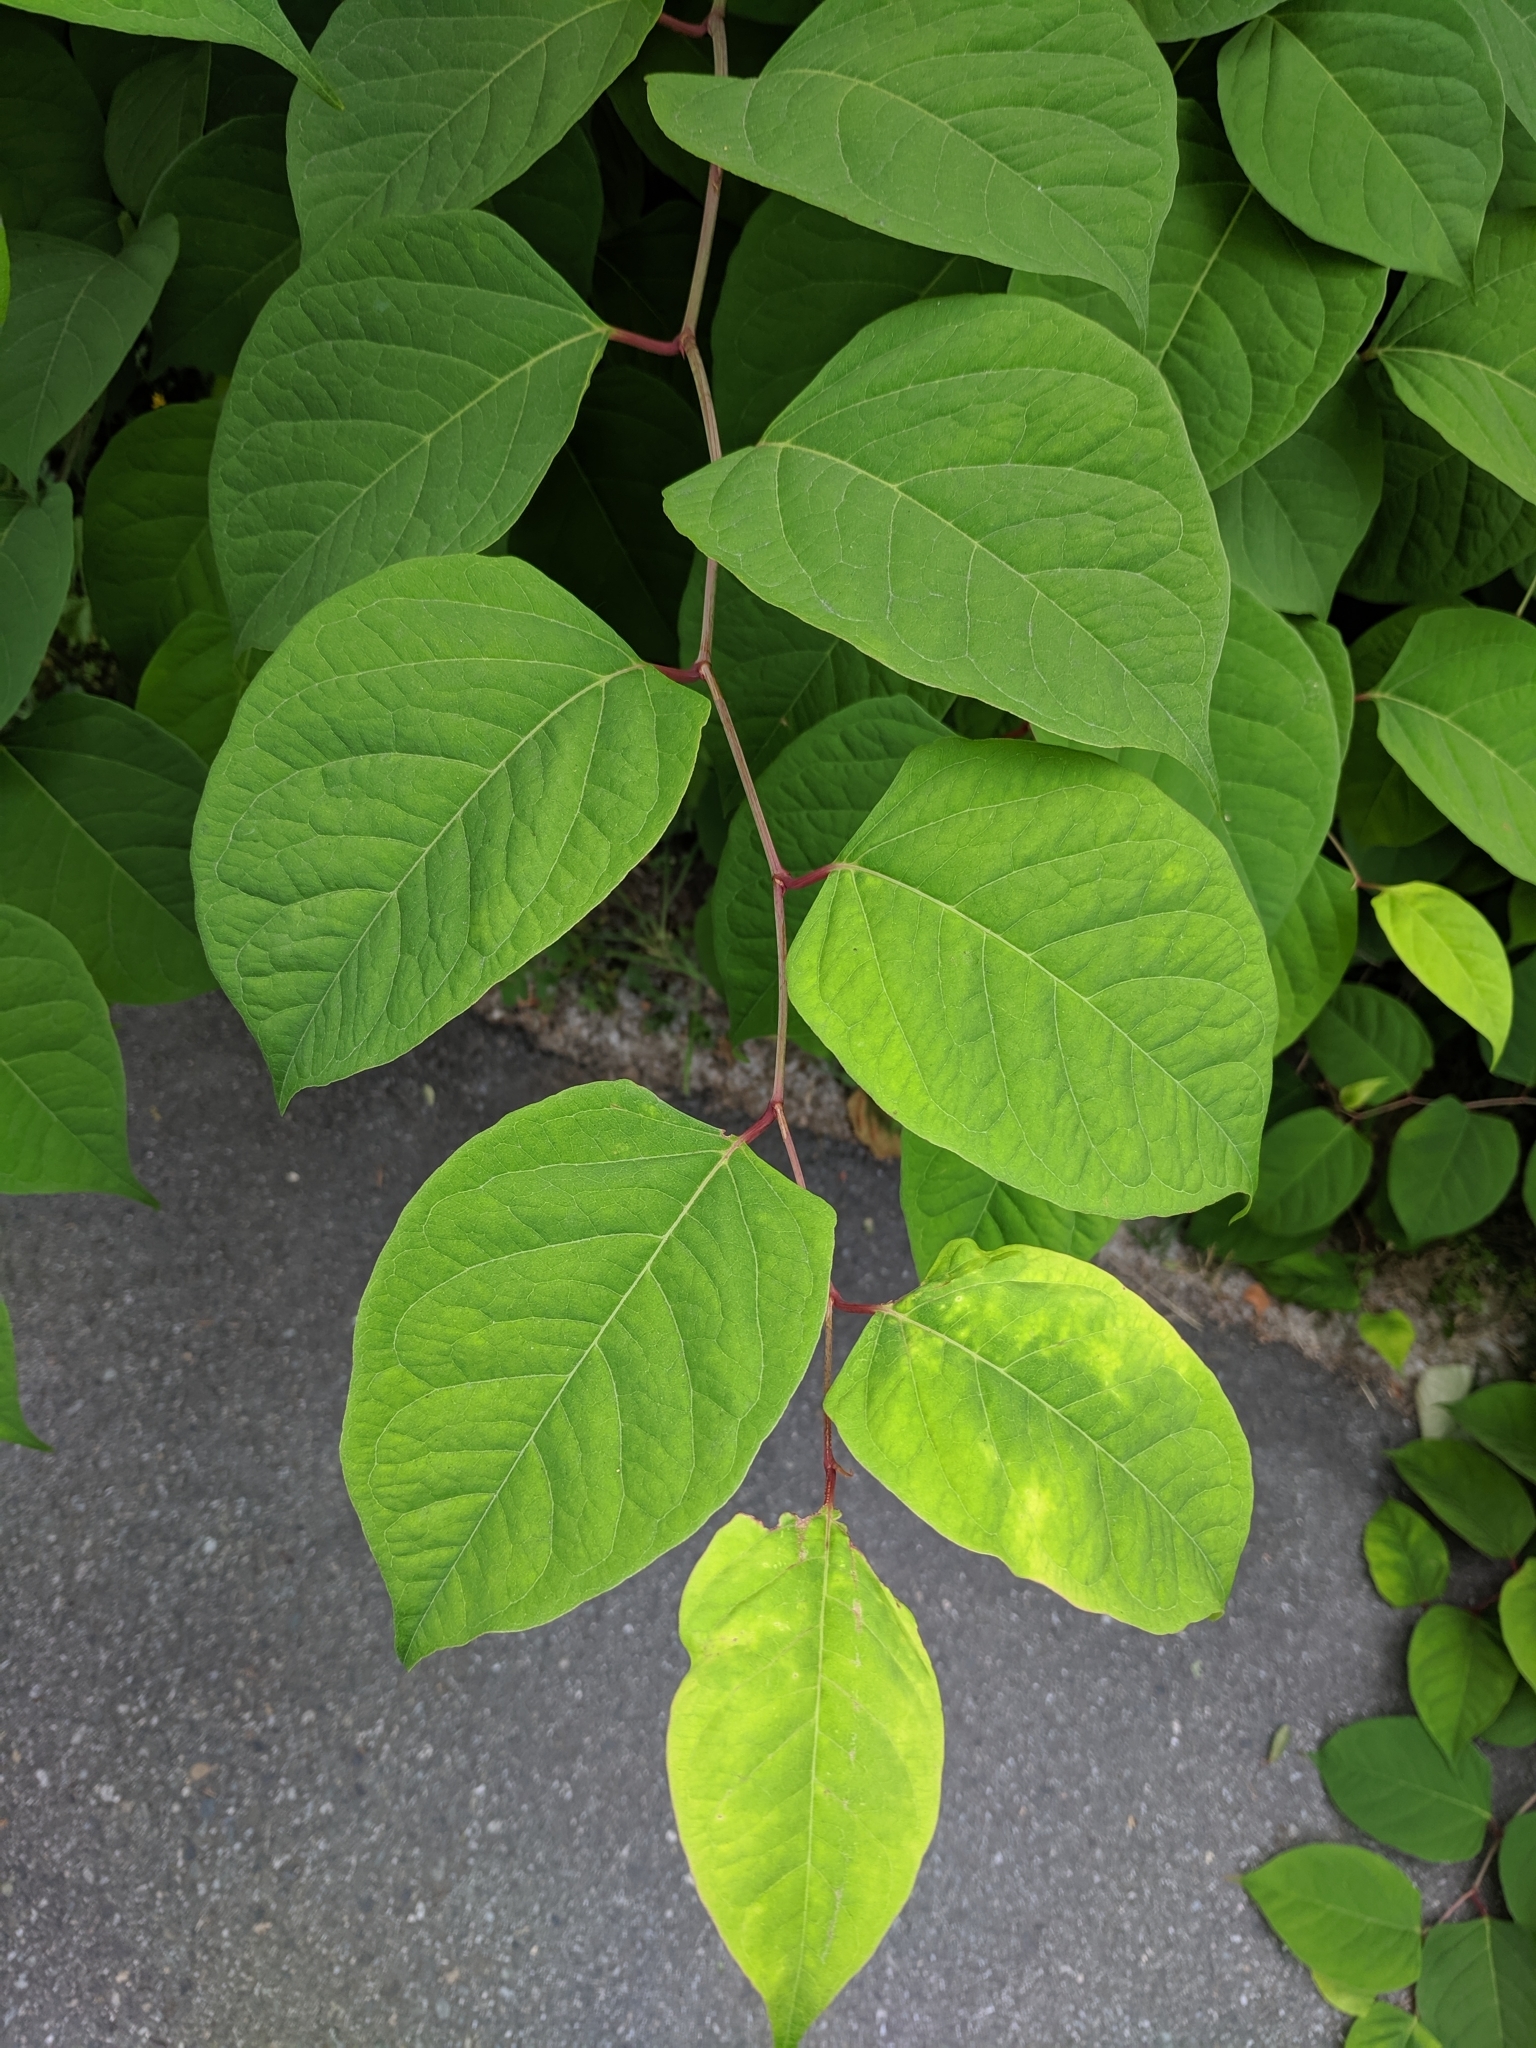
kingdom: Plantae
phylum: Tracheophyta
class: Magnoliopsida
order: Caryophyllales
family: Polygonaceae
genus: Reynoutria
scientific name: Reynoutria japonica
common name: Japanese knotweed
